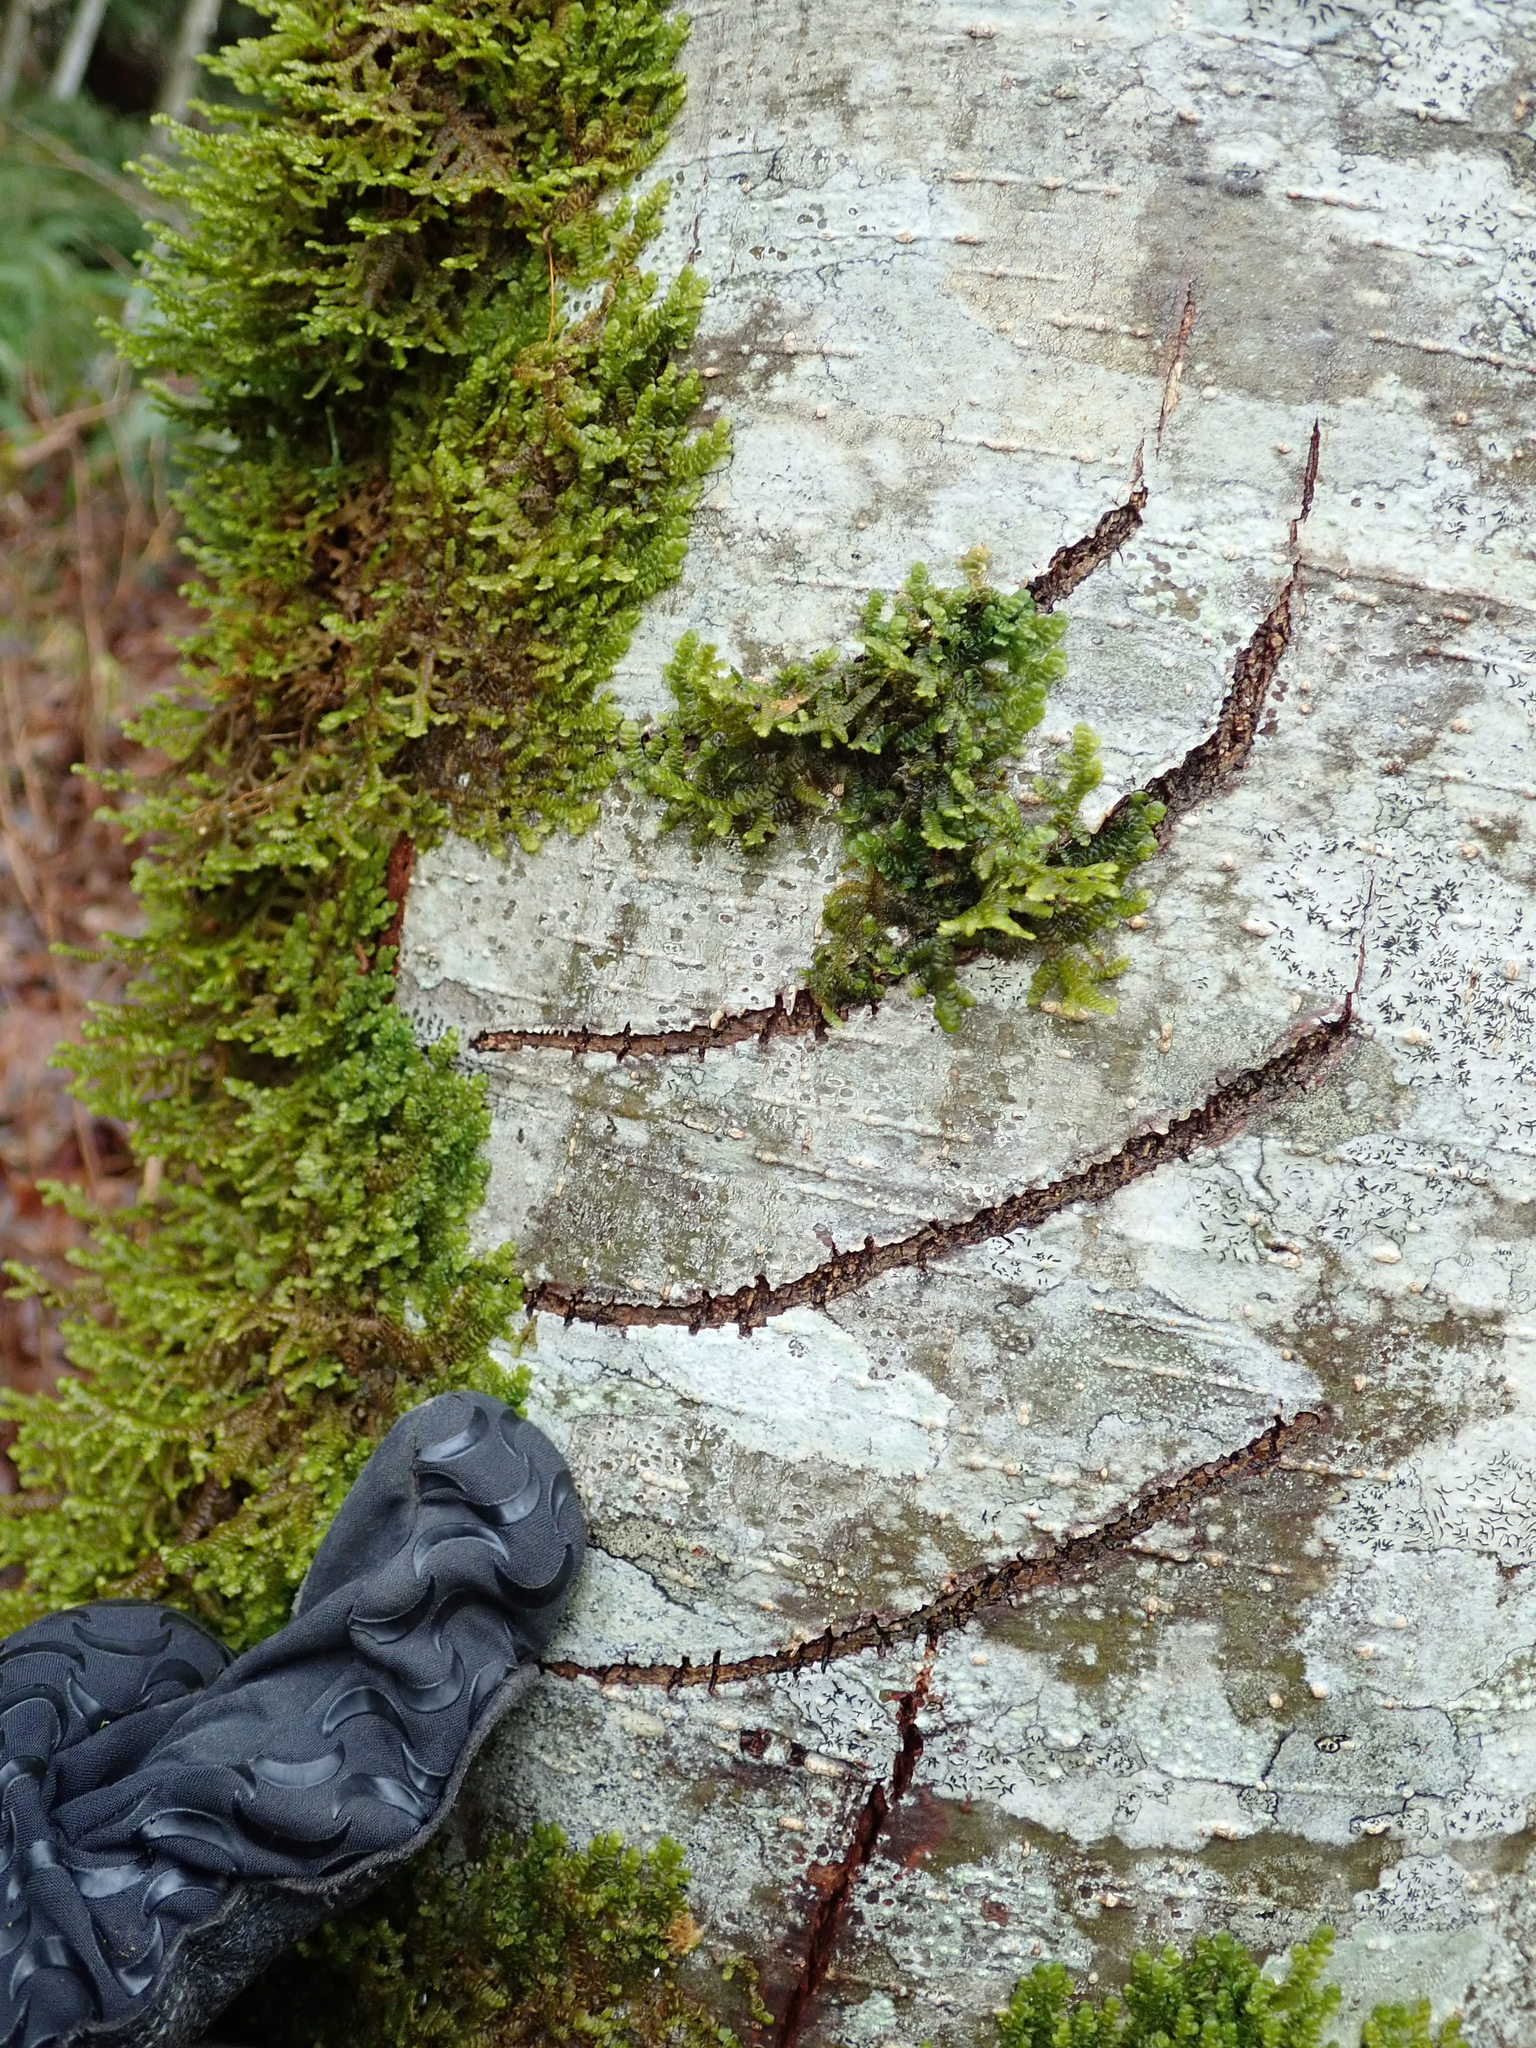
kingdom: Animalia
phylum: Chordata
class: Mammalia
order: Carnivora
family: Ursidae
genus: Ursus
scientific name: Ursus americanus
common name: American black bear
